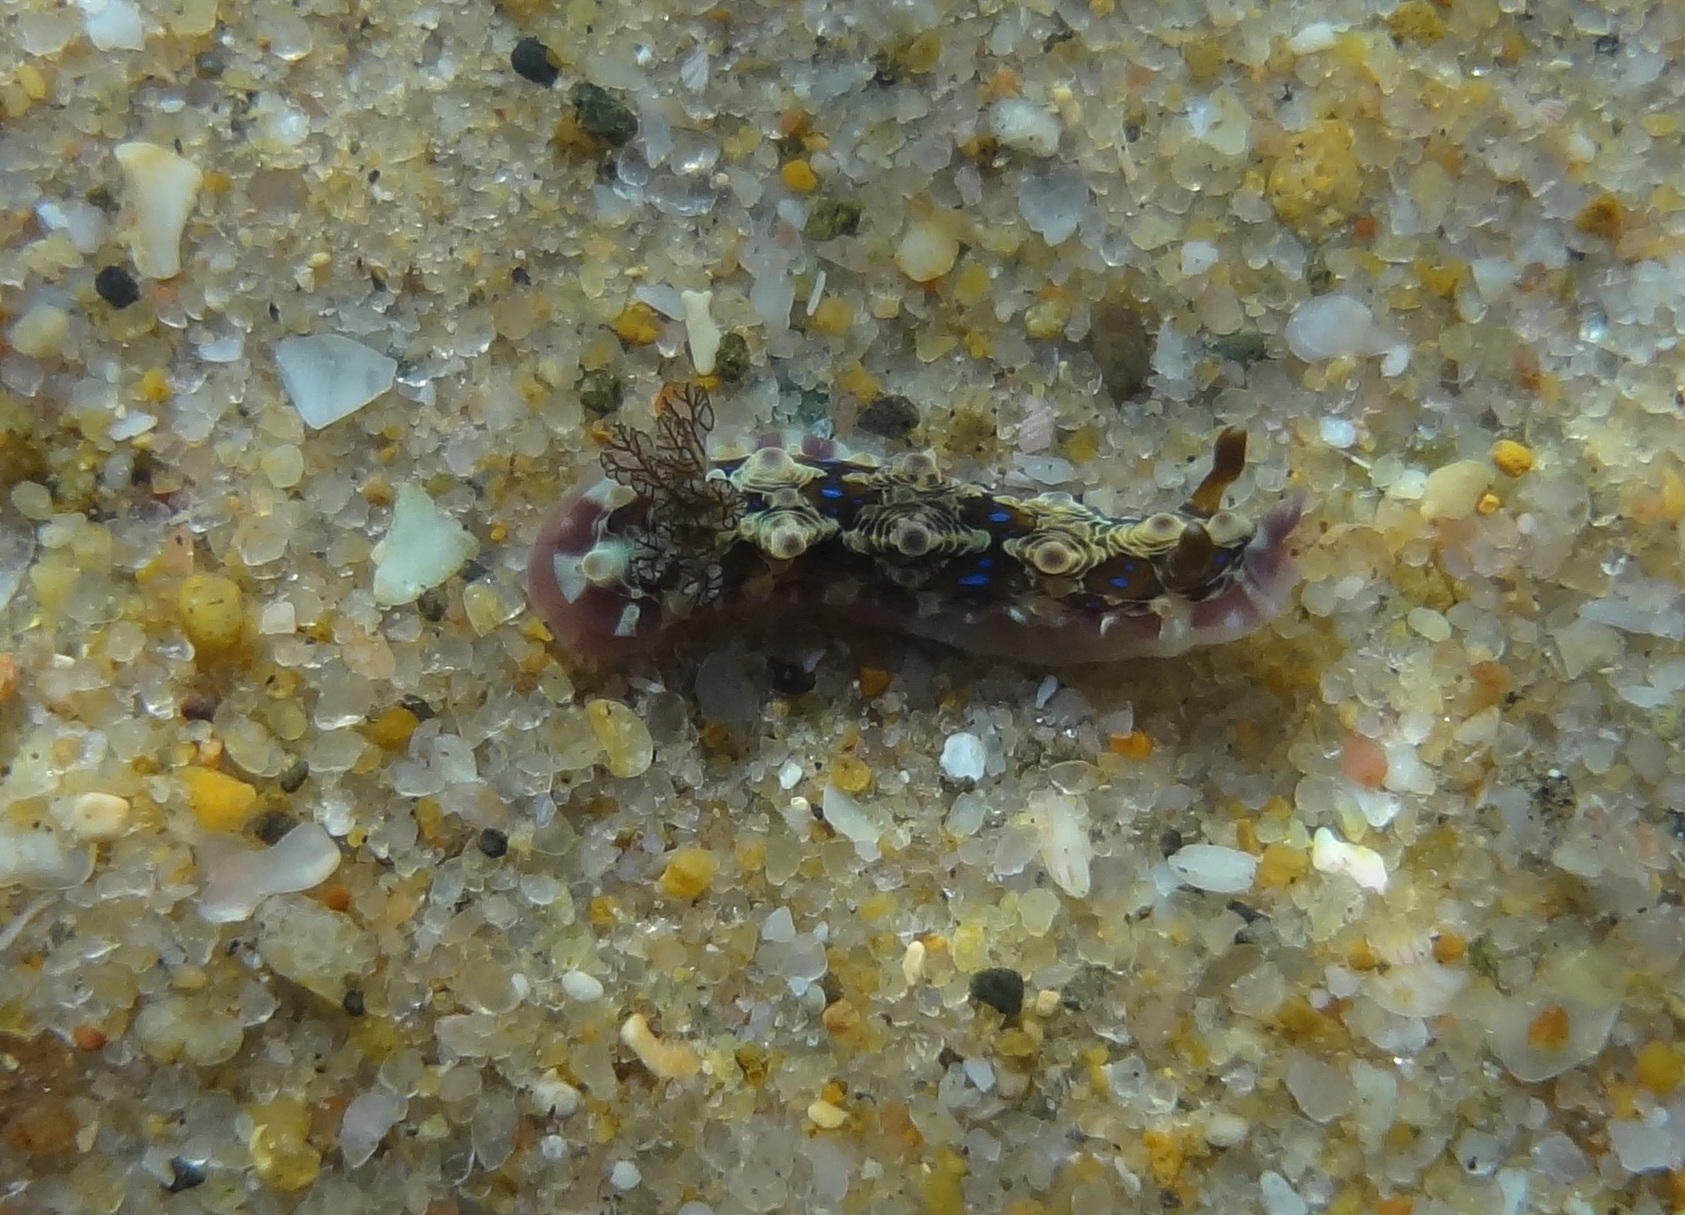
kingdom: Animalia
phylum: Mollusca
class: Gastropoda
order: Nudibranchia
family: Dendrodorididae
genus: Dendrodoris
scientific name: Dendrodoris krusensternii
